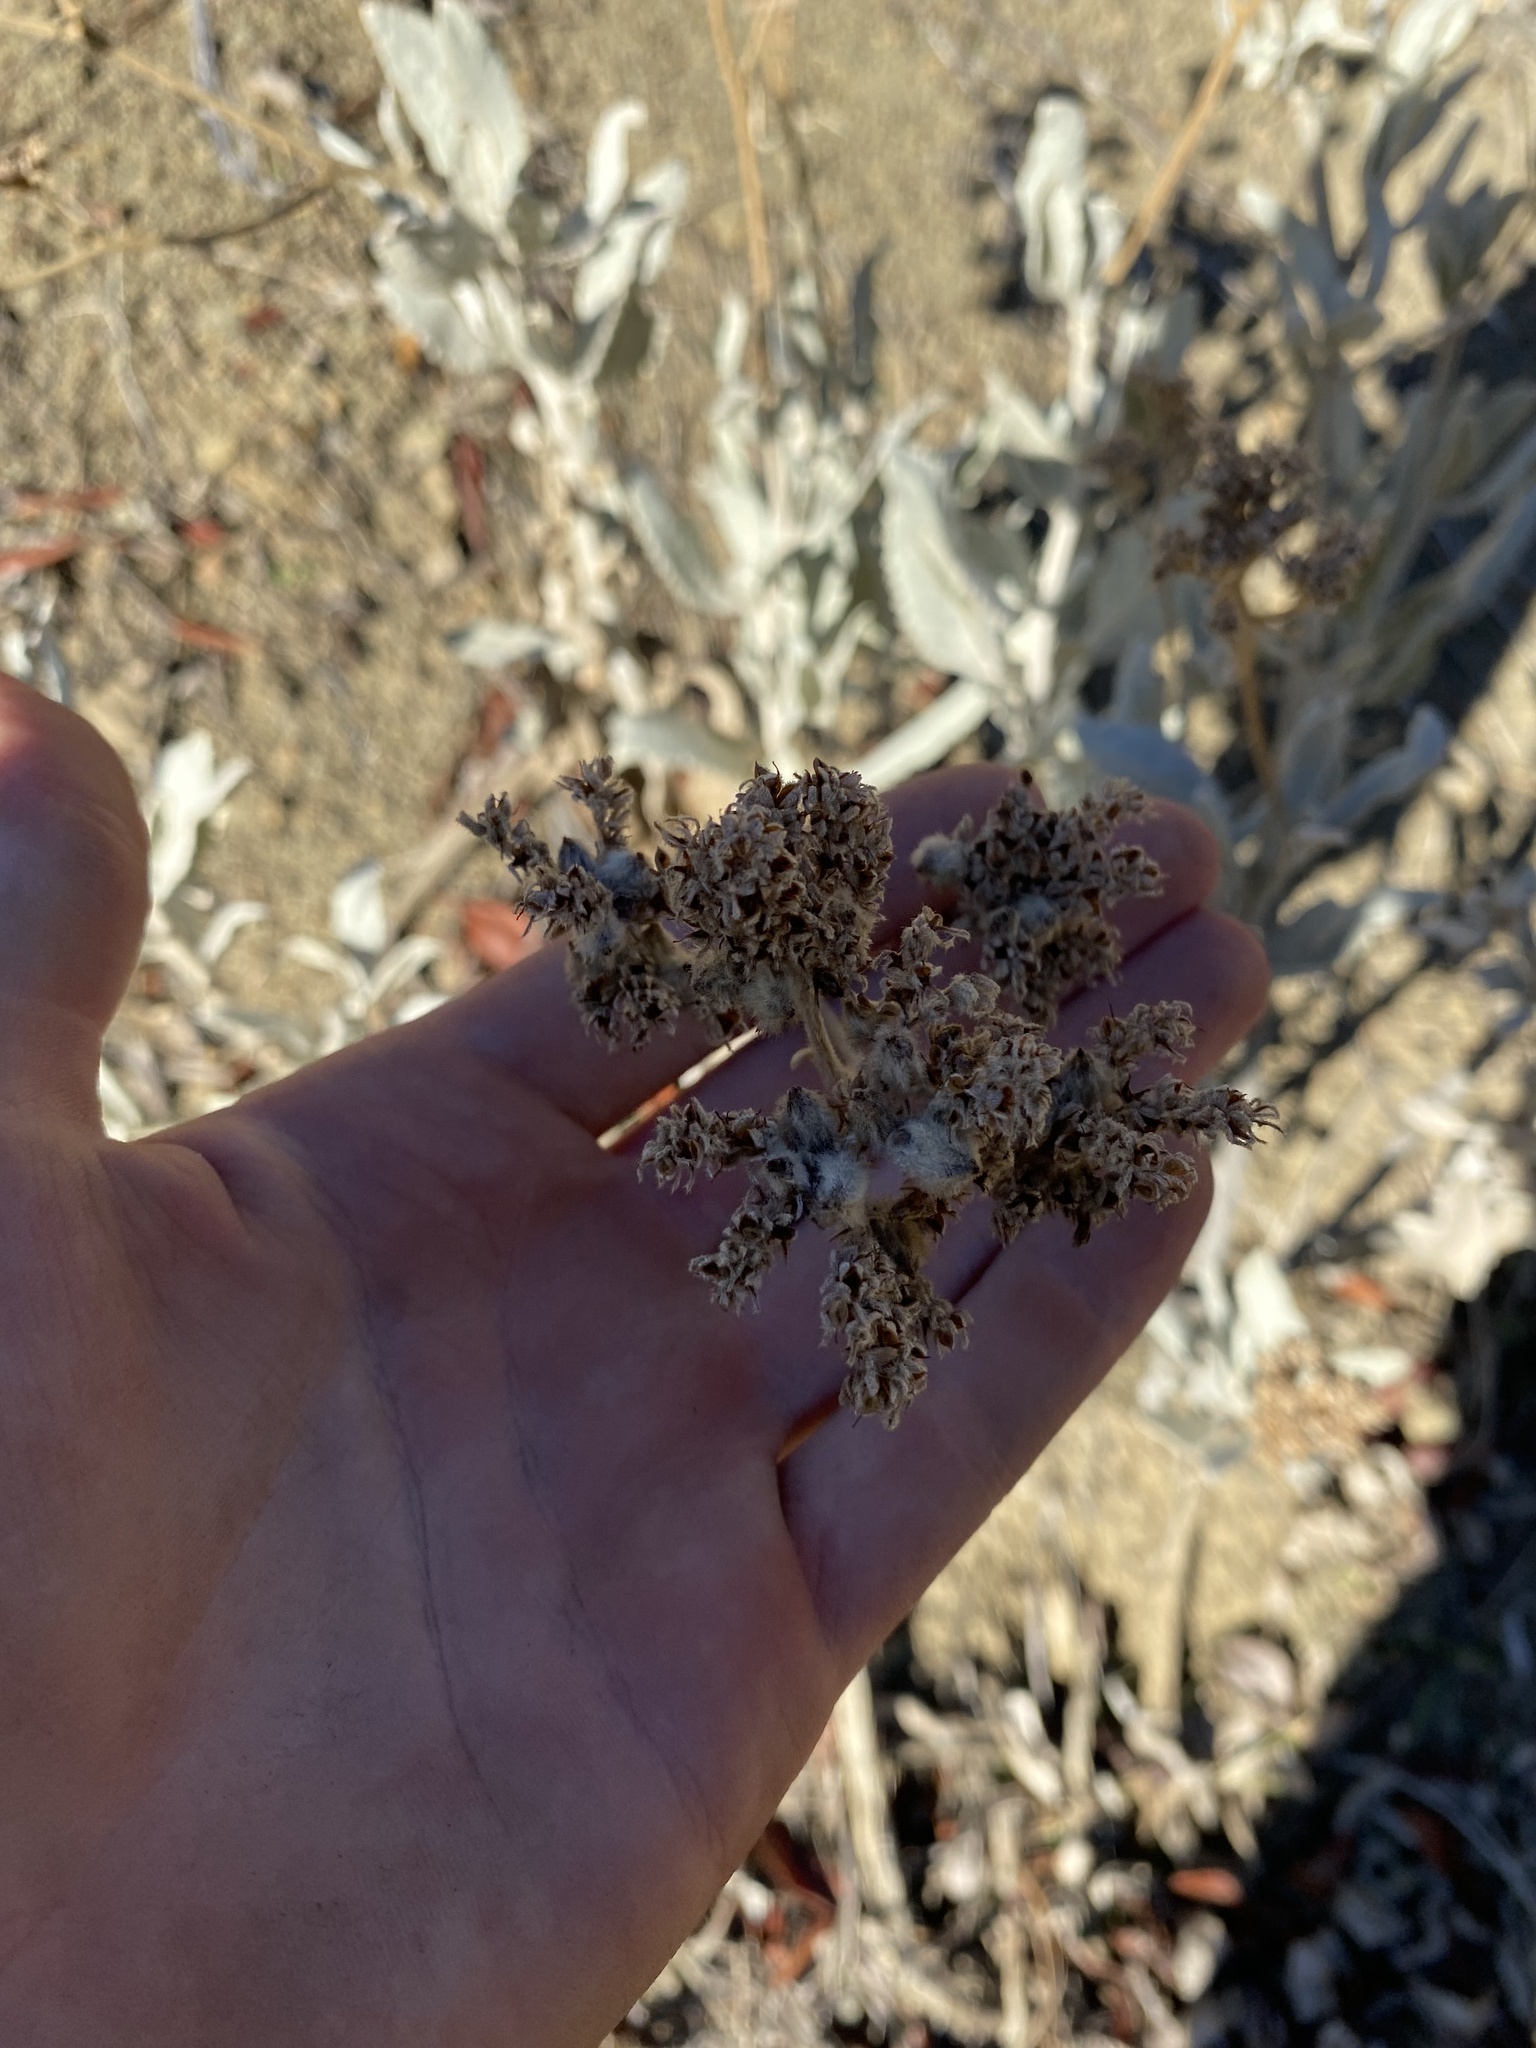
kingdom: Plantae
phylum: Tracheophyta
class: Magnoliopsida
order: Boraginales
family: Namaceae
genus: Eriodictyon
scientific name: Eriodictyon tomentosum
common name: Woolly yerba-santa
